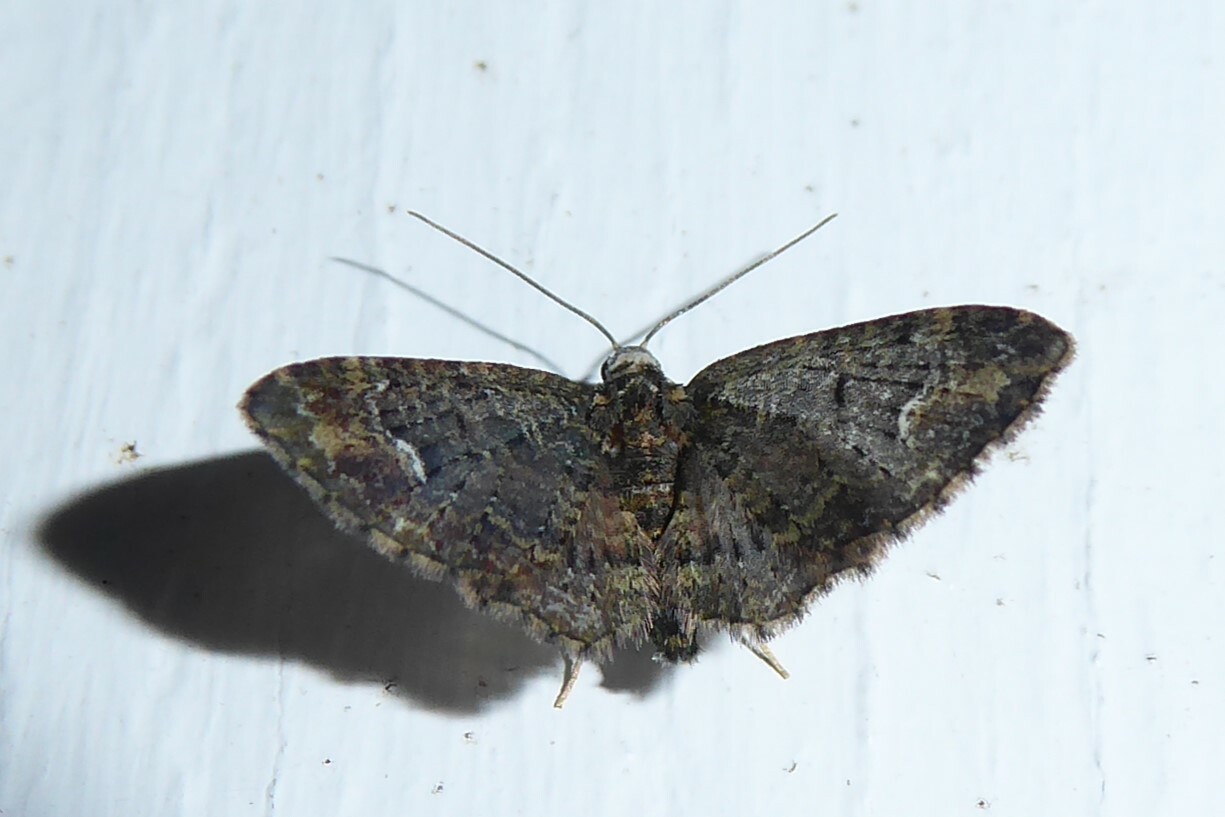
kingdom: Animalia
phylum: Arthropoda
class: Insecta
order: Lepidoptera
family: Geometridae
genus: Pasiphilodes
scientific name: Pasiphilodes testulata
